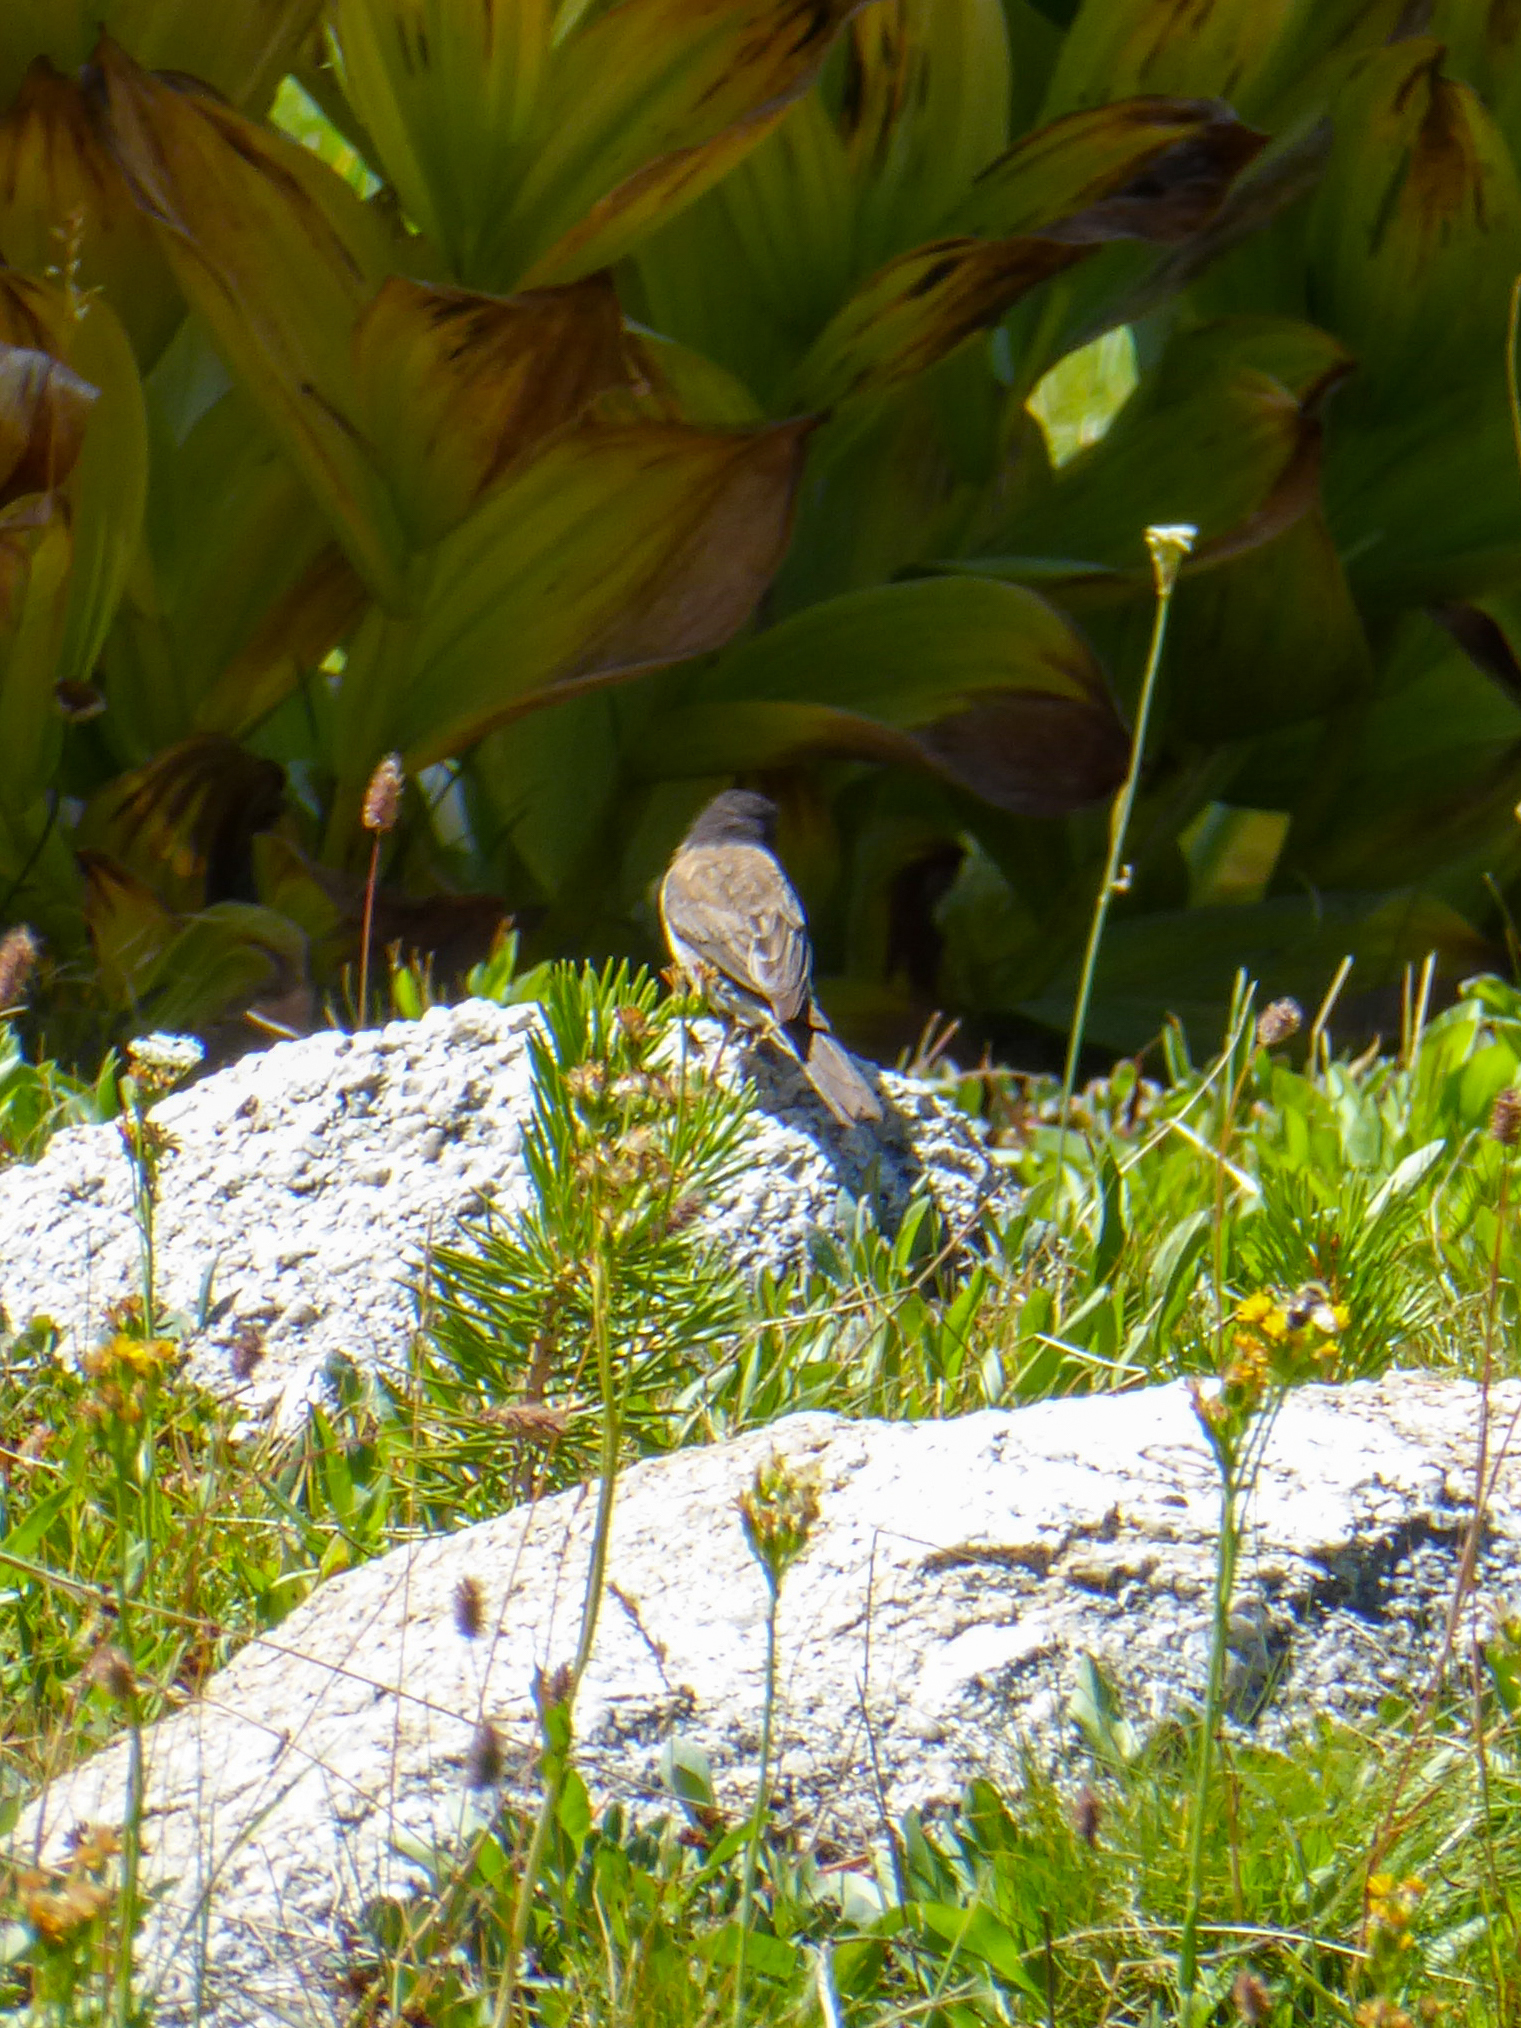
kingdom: Animalia
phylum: Chordata
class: Aves
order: Passeriformes
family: Passerellidae
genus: Junco
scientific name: Junco hyemalis
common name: Dark-eyed junco
